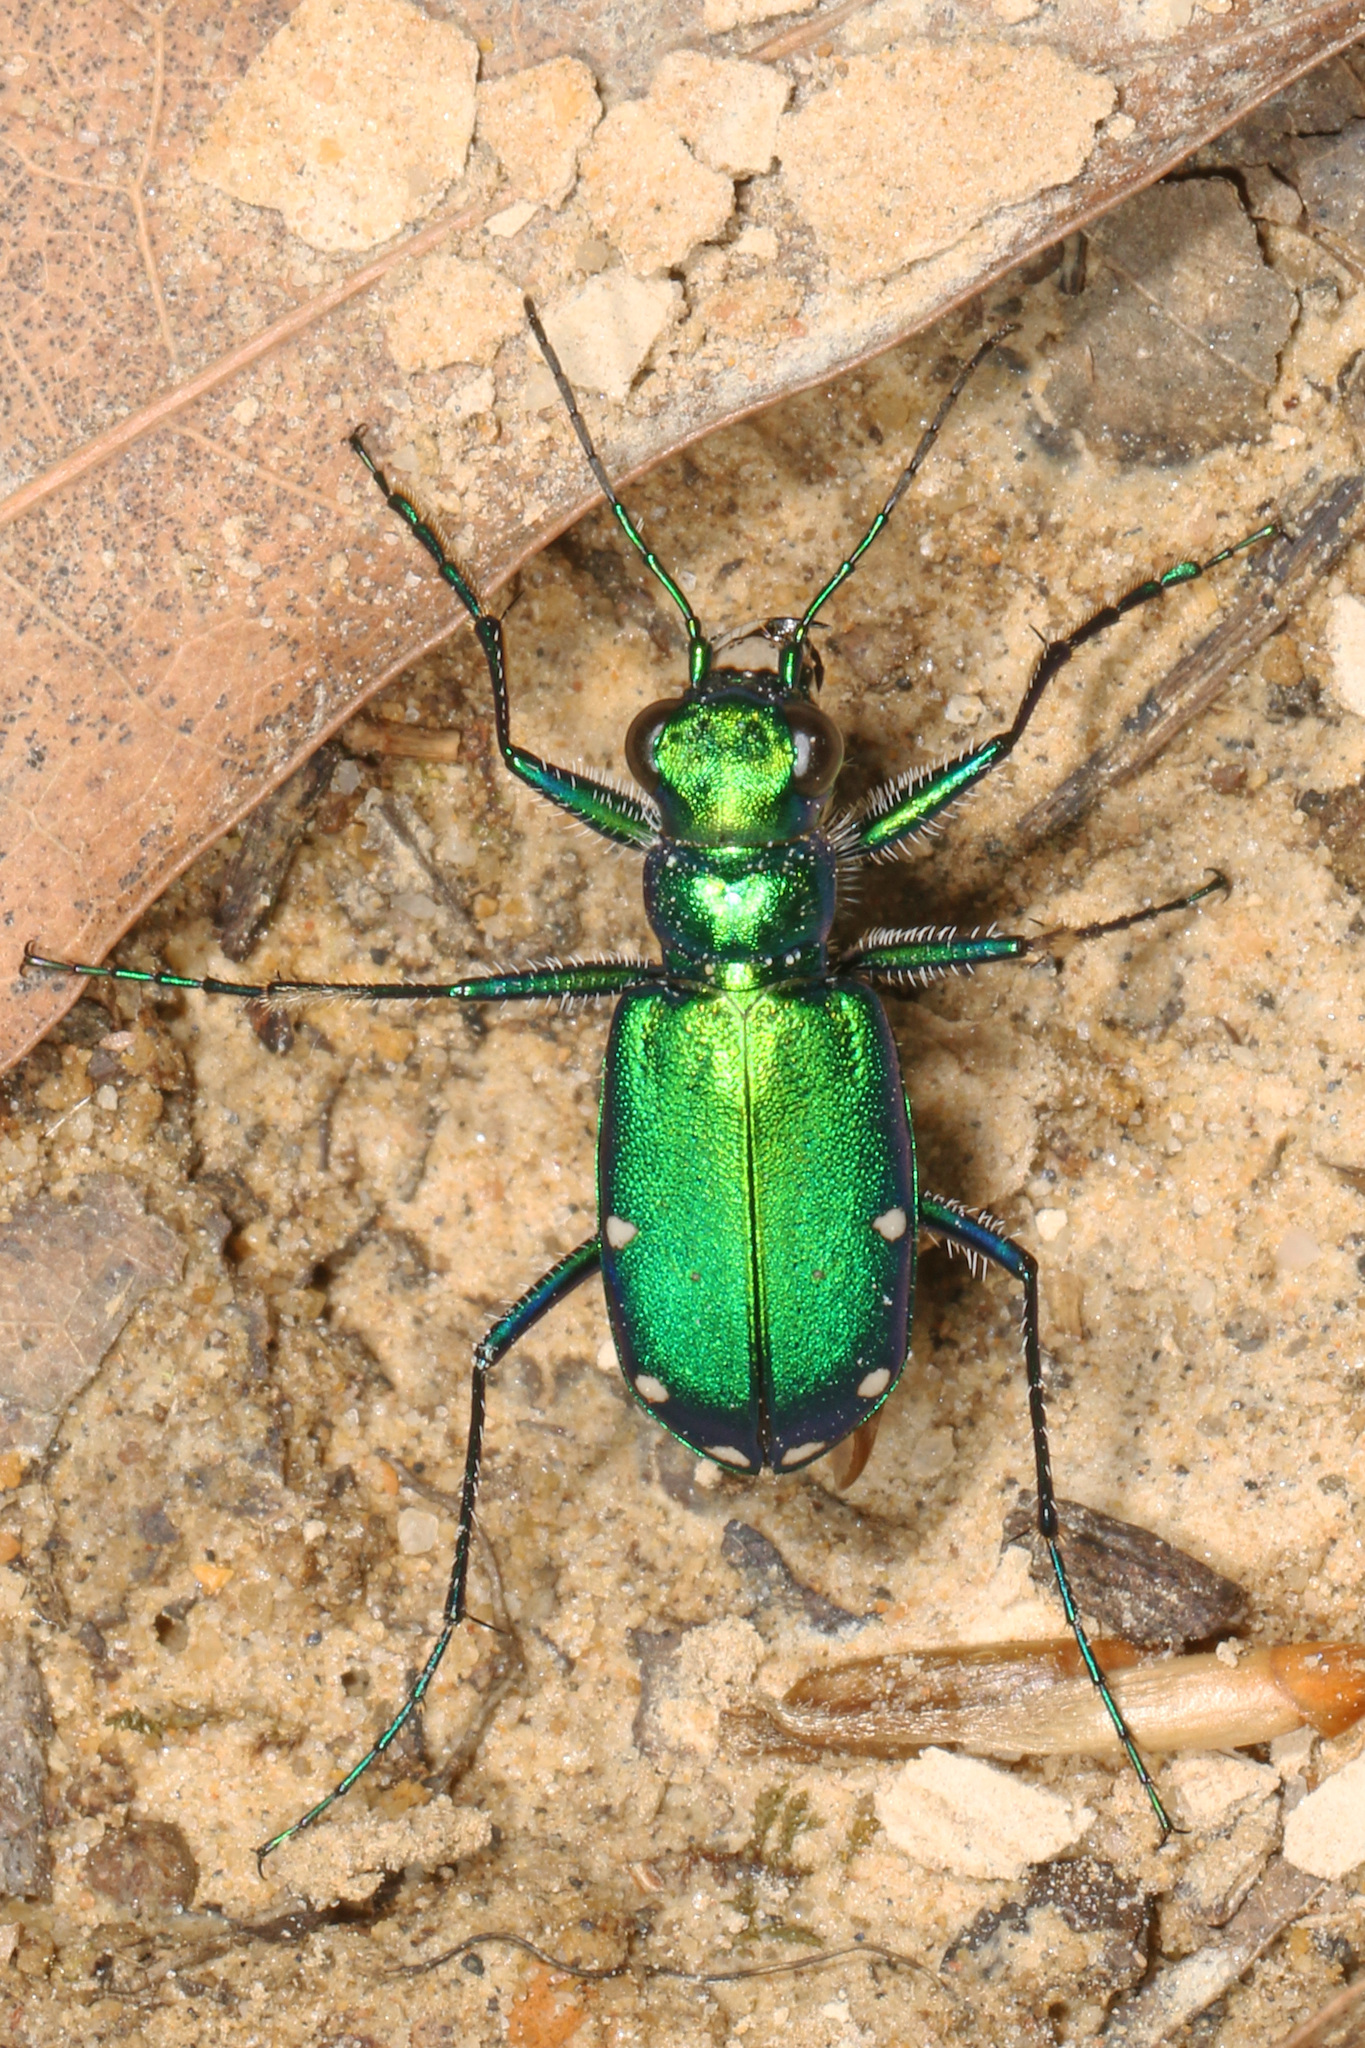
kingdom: Animalia
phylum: Arthropoda
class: Insecta
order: Coleoptera
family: Carabidae
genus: Cicindela
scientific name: Cicindela sexguttata
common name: Six-spotted tiger beetle
